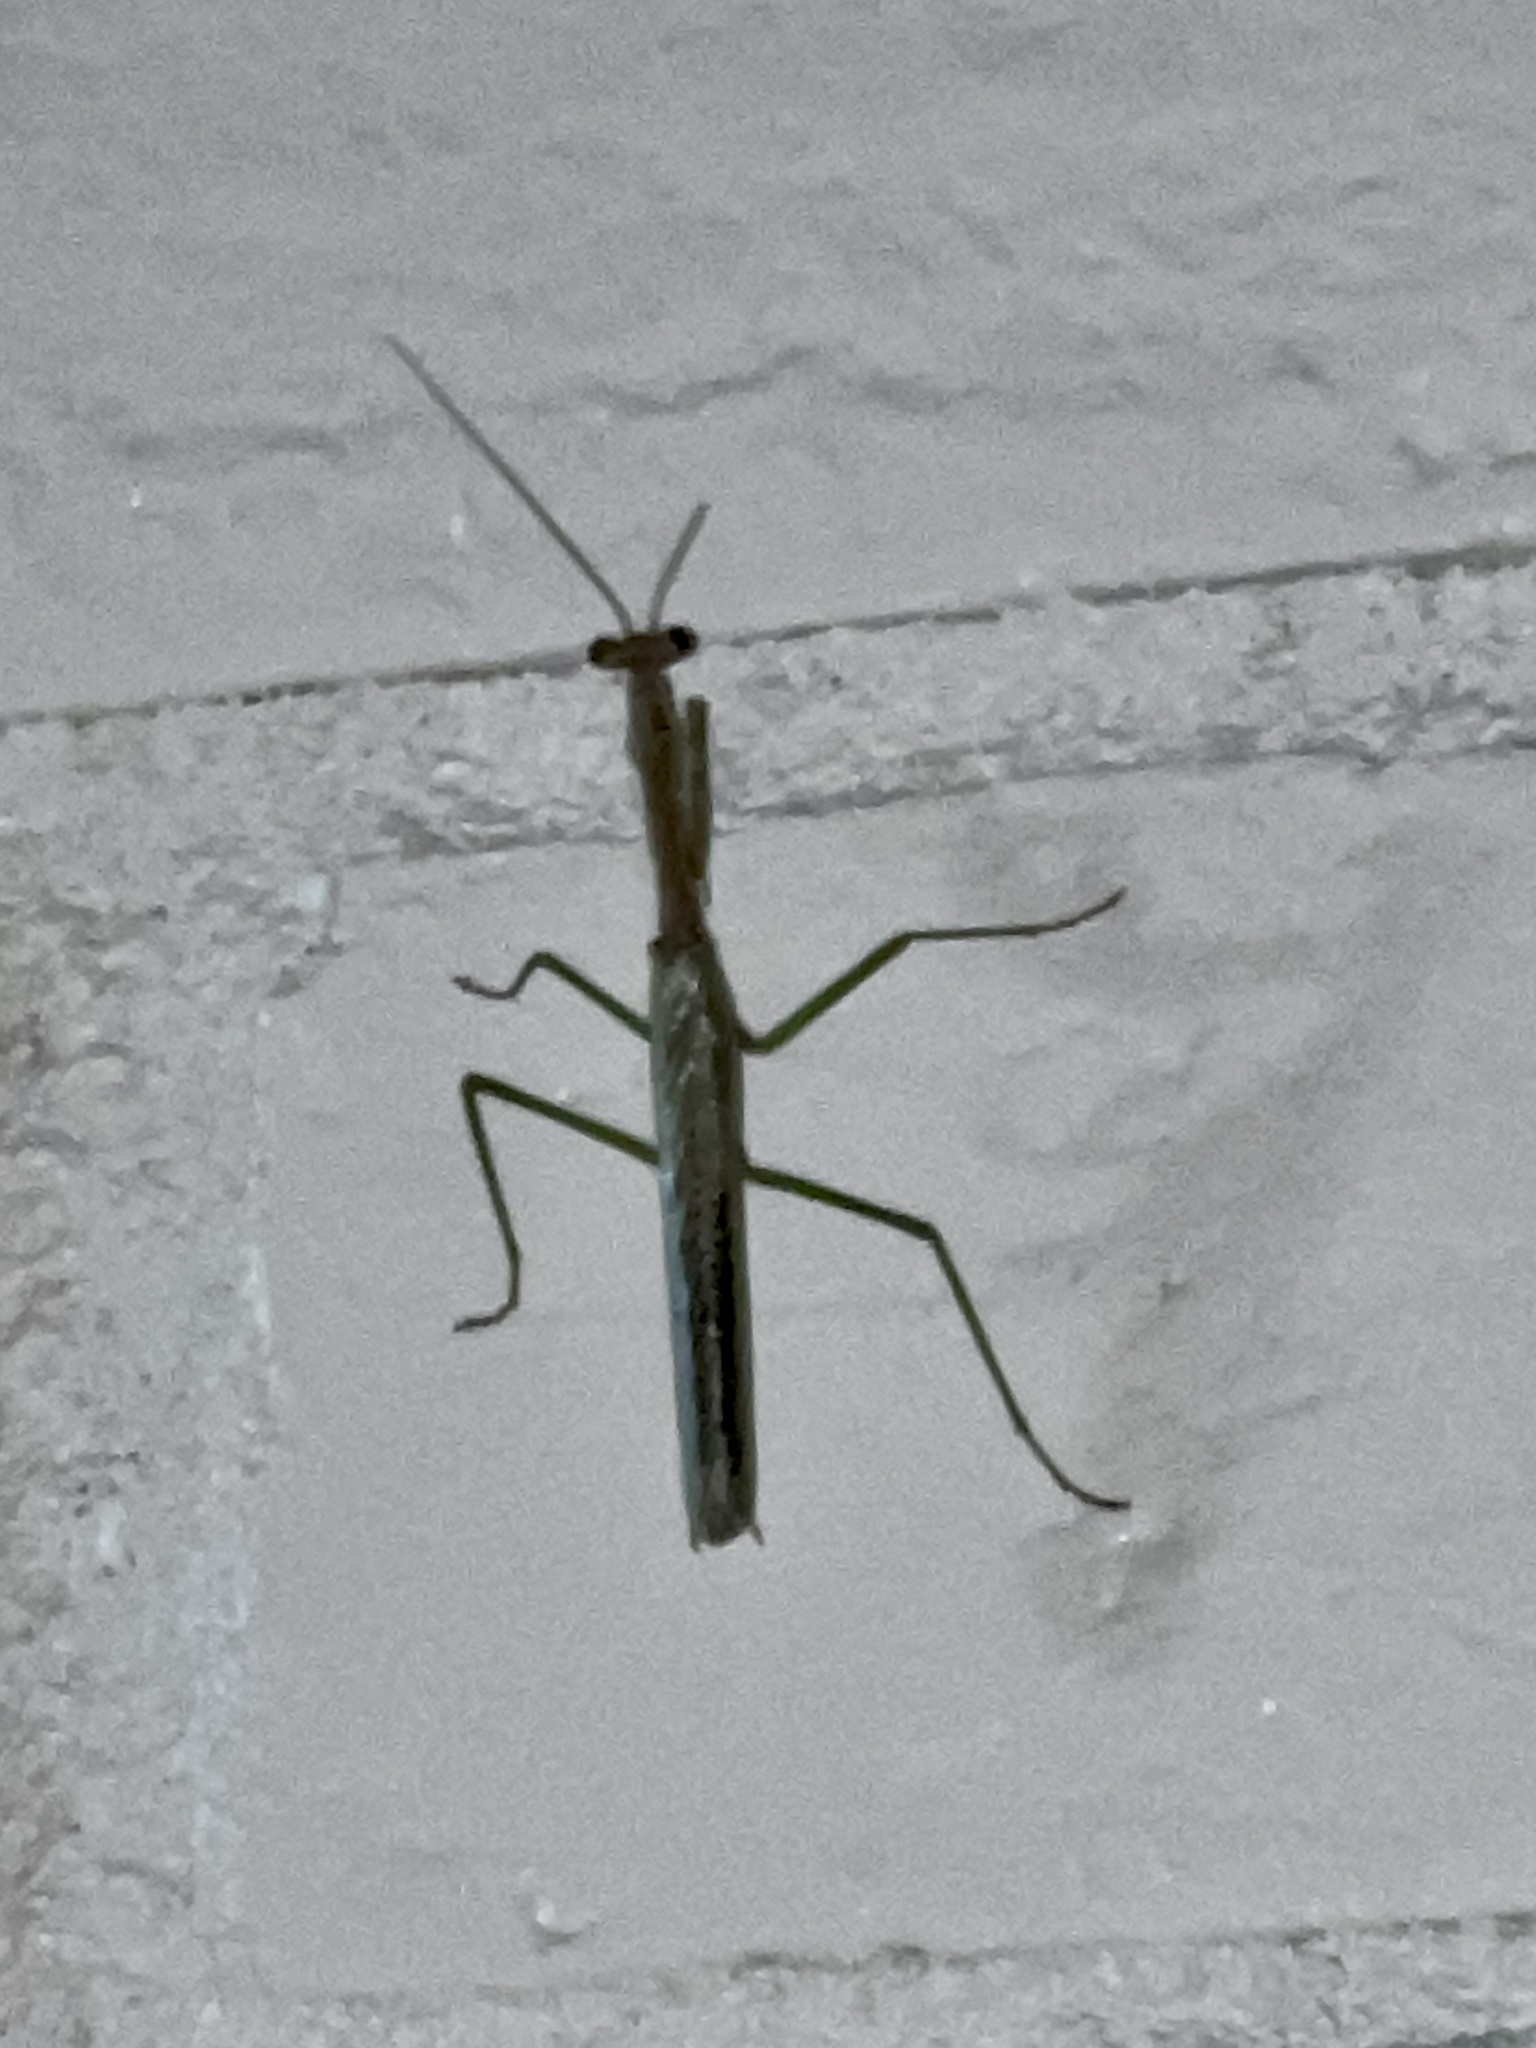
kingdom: Animalia
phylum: Arthropoda
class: Insecta
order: Mantodea
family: Mantidae
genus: Stagmomantis
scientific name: Stagmomantis carolina
